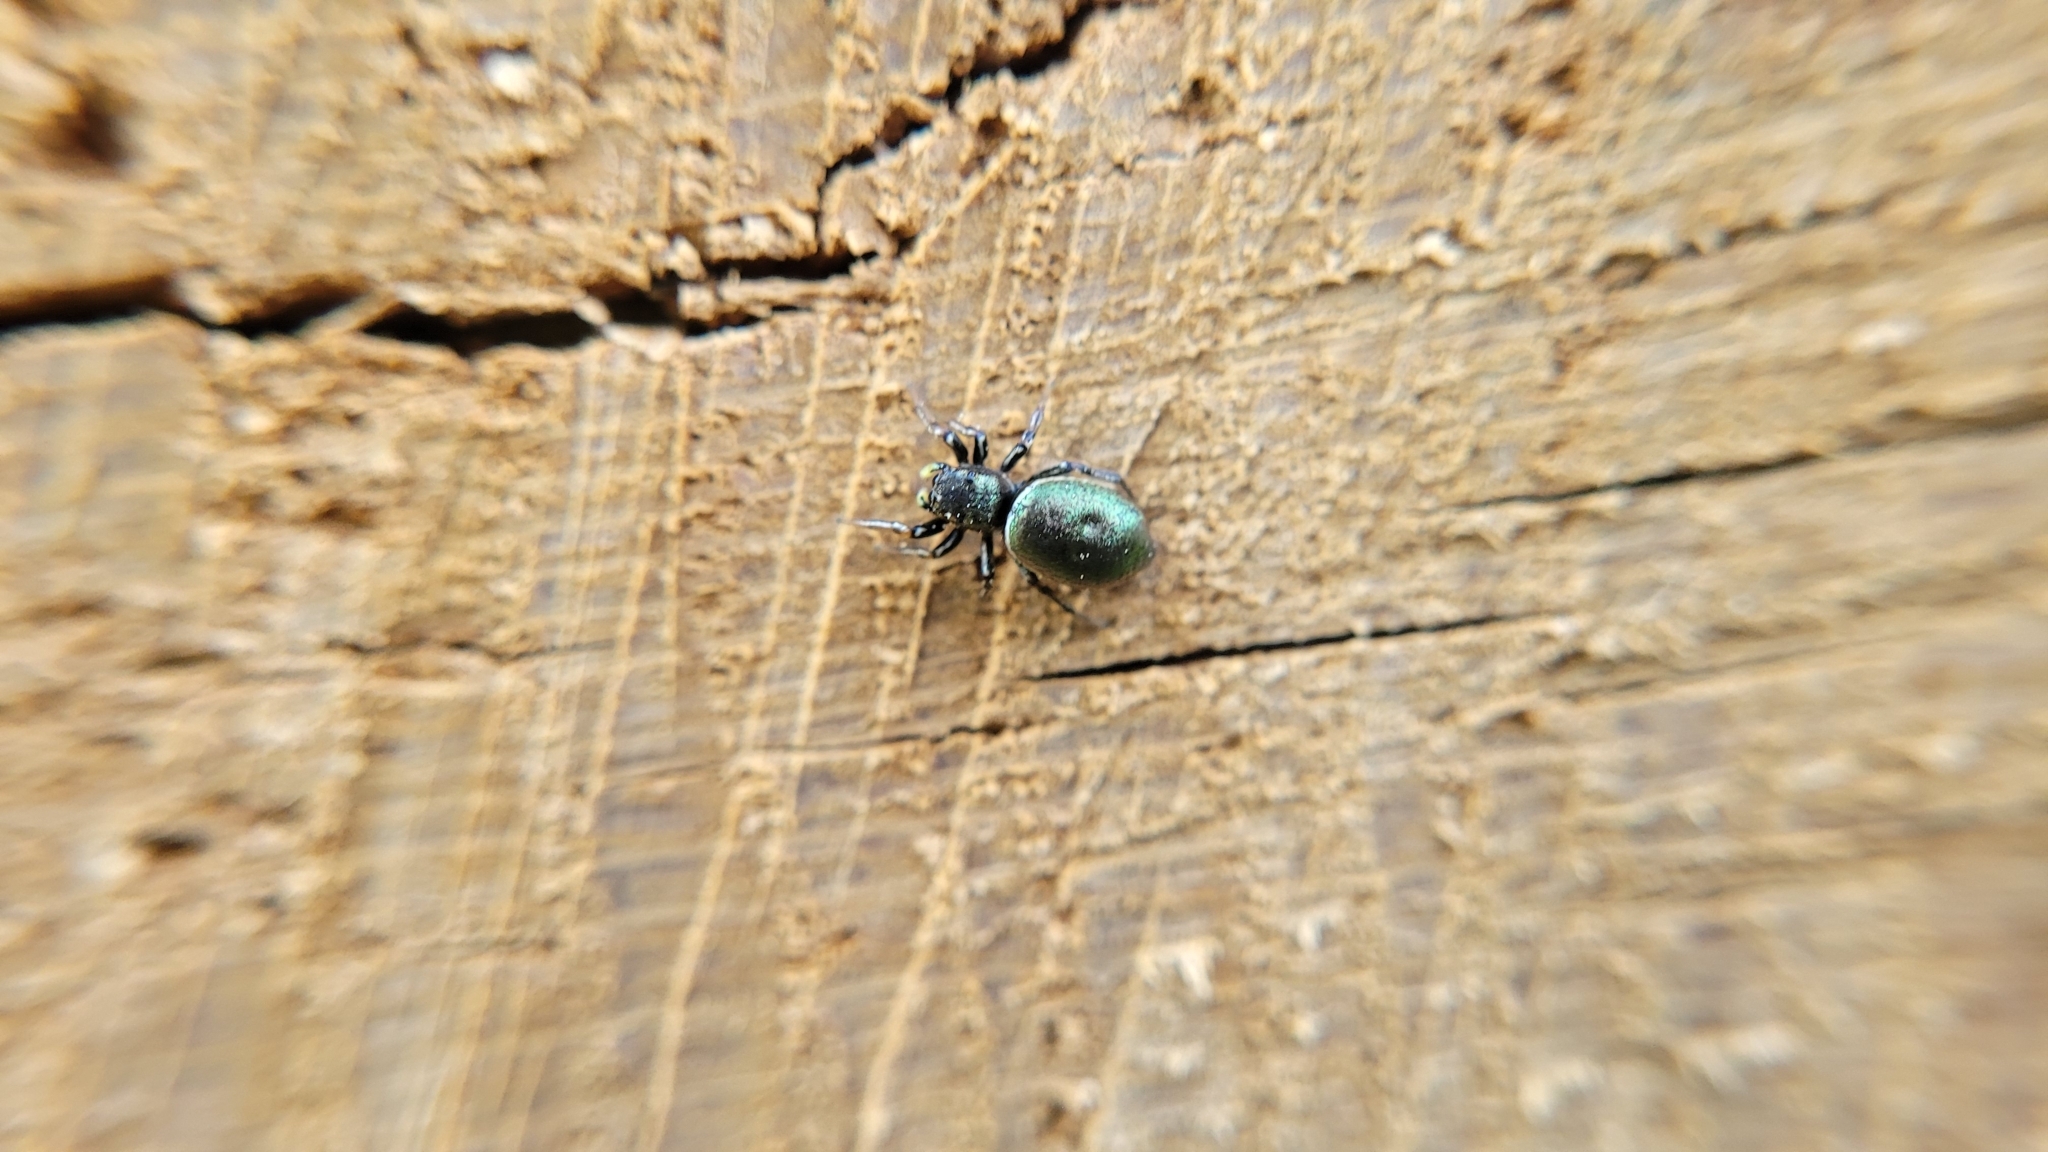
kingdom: Animalia
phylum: Arthropoda
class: Arachnida
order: Araneae
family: Salticidae
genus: Heliophanus
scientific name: Heliophanus auratus
